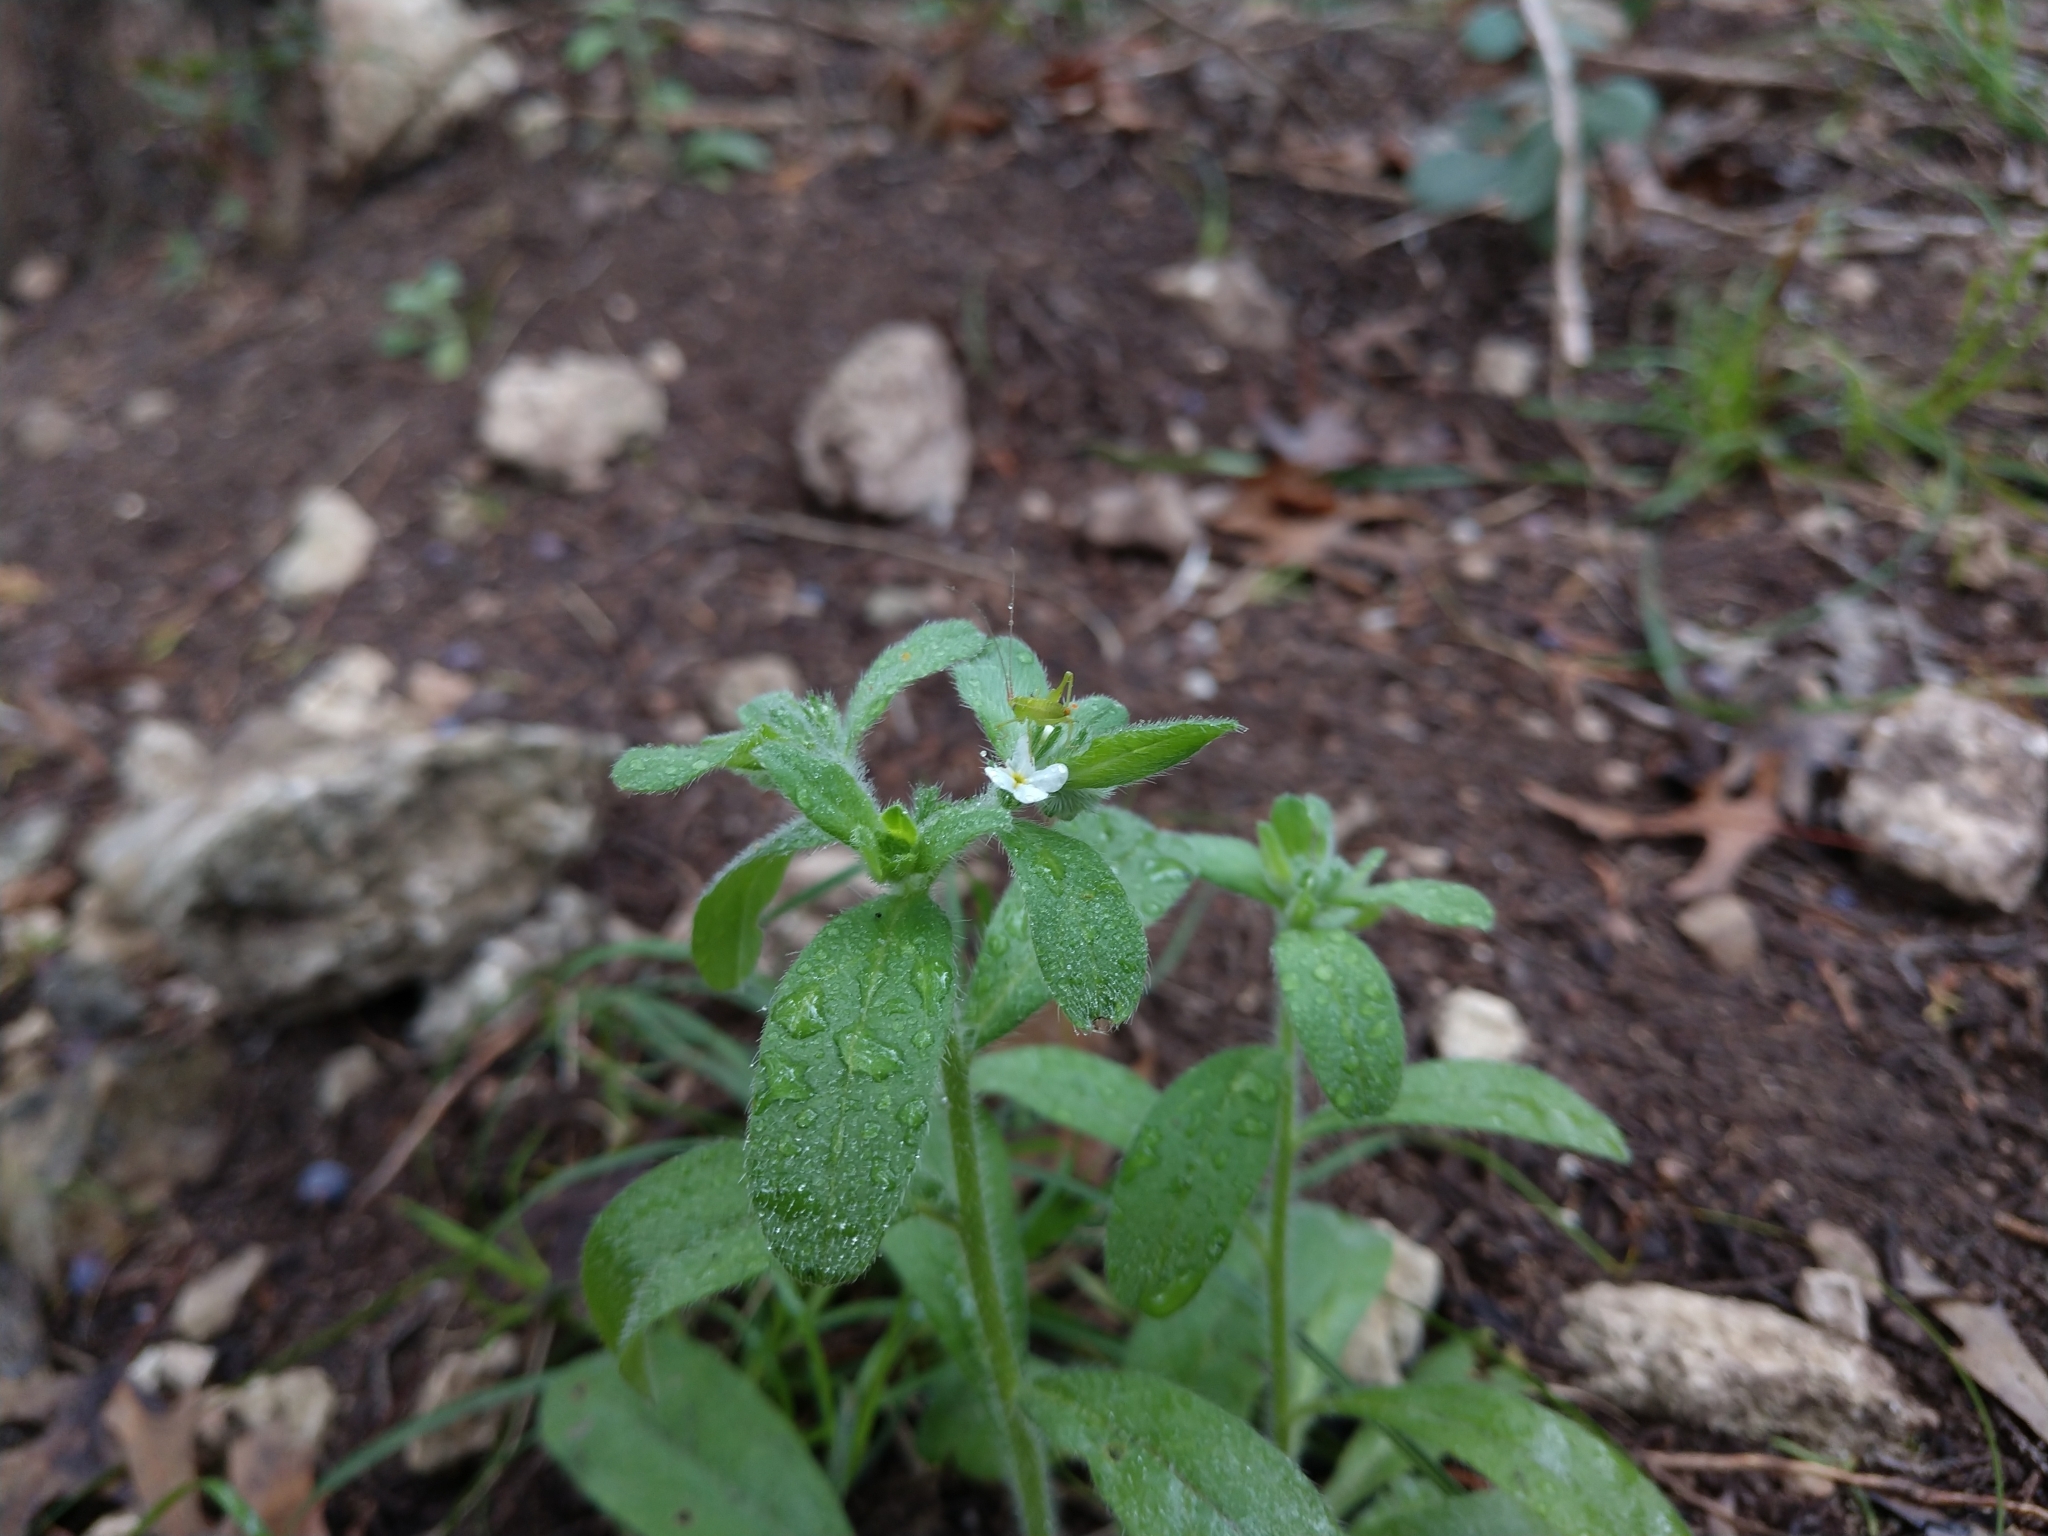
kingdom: Plantae
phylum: Tracheophyta
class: Magnoliopsida
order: Boraginales
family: Boraginaceae
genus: Lithospermum
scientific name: Lithospermum matamorense
